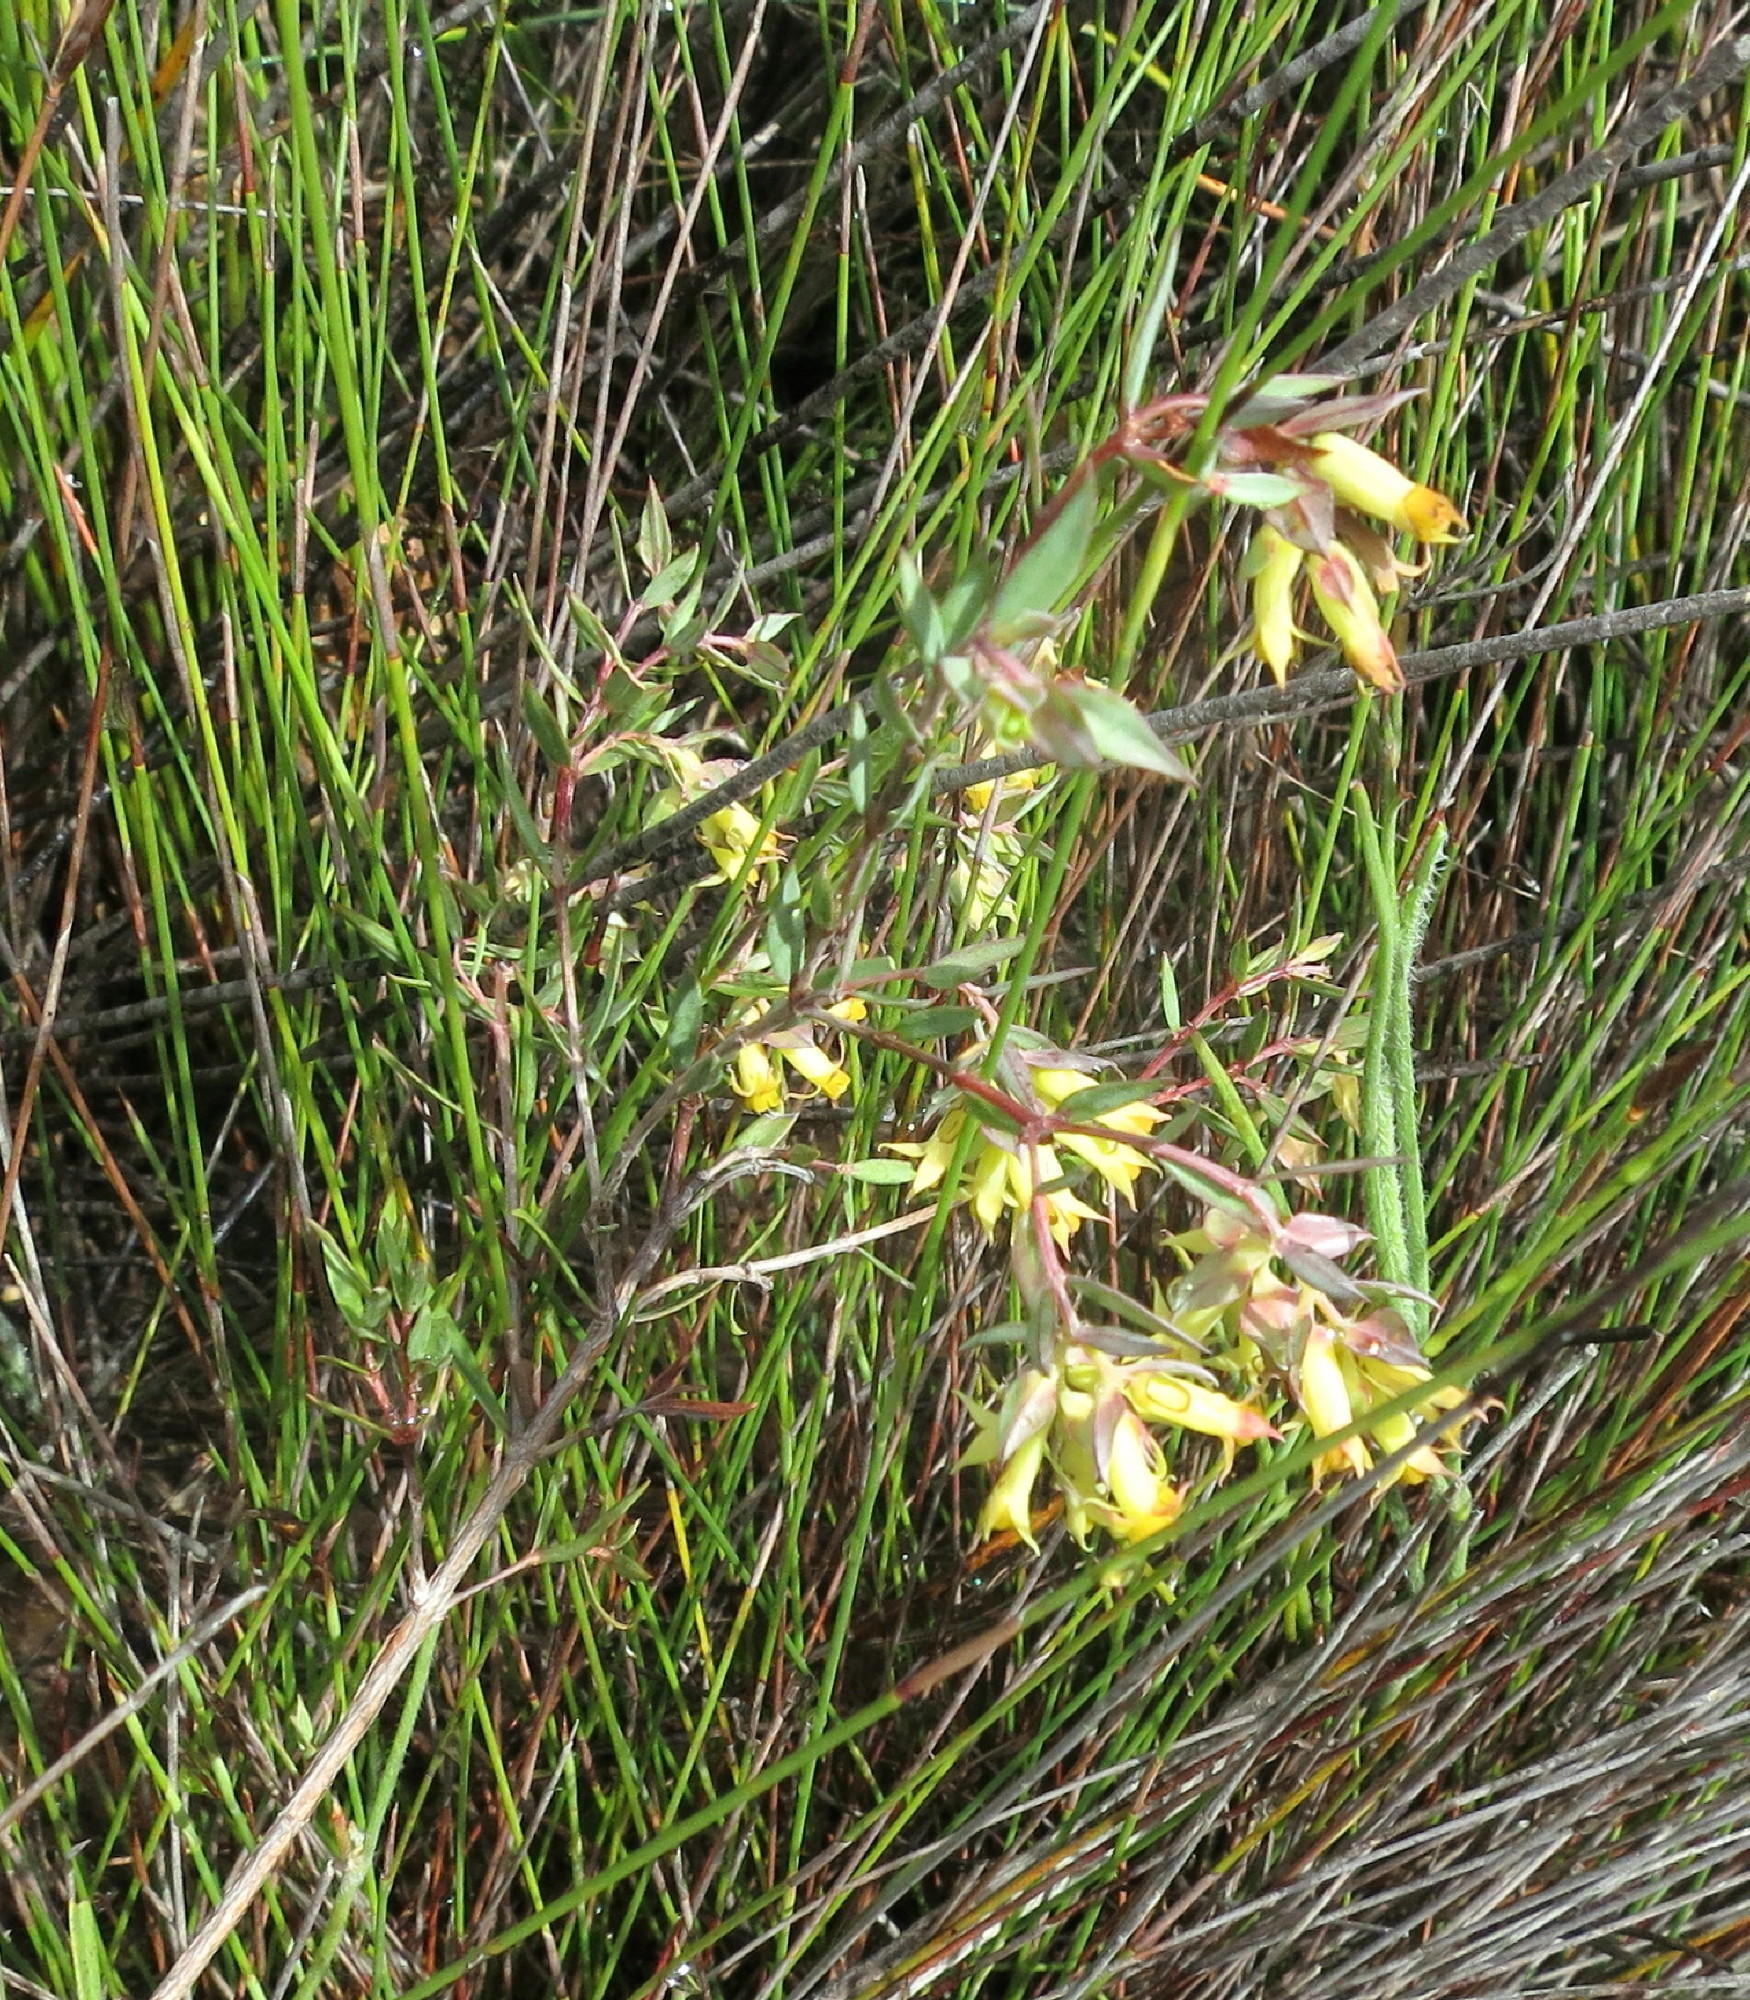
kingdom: Plantae
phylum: Tracheophyta
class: Magnoliopsida
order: Myrtales
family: Penaeaceae
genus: Penaea
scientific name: Penaea acutifolia
